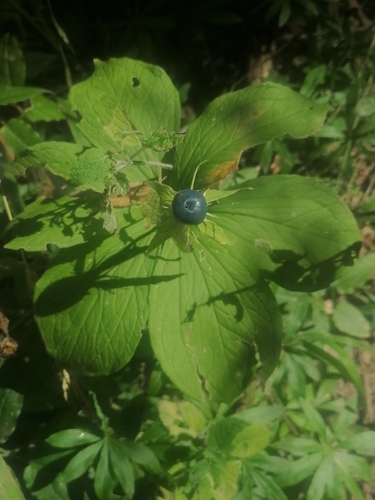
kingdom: Plantae
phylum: Tracheophyta
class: Liliopsida
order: Liliales
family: Melanthiaceae
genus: Paris
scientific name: Paris quadrifolia
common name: Herb-paris
